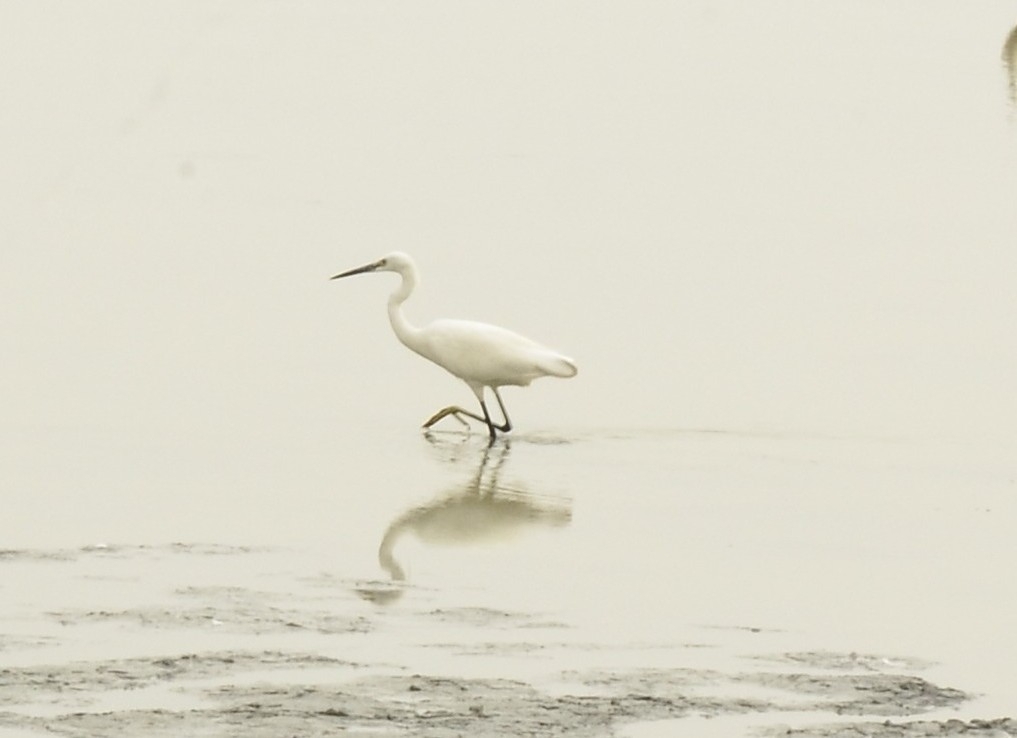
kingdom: Animalia
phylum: Chordata
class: Aves
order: Pelecaniformes
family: Ardeidae
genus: Egretta
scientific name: Egretta garzetta
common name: Little egret
